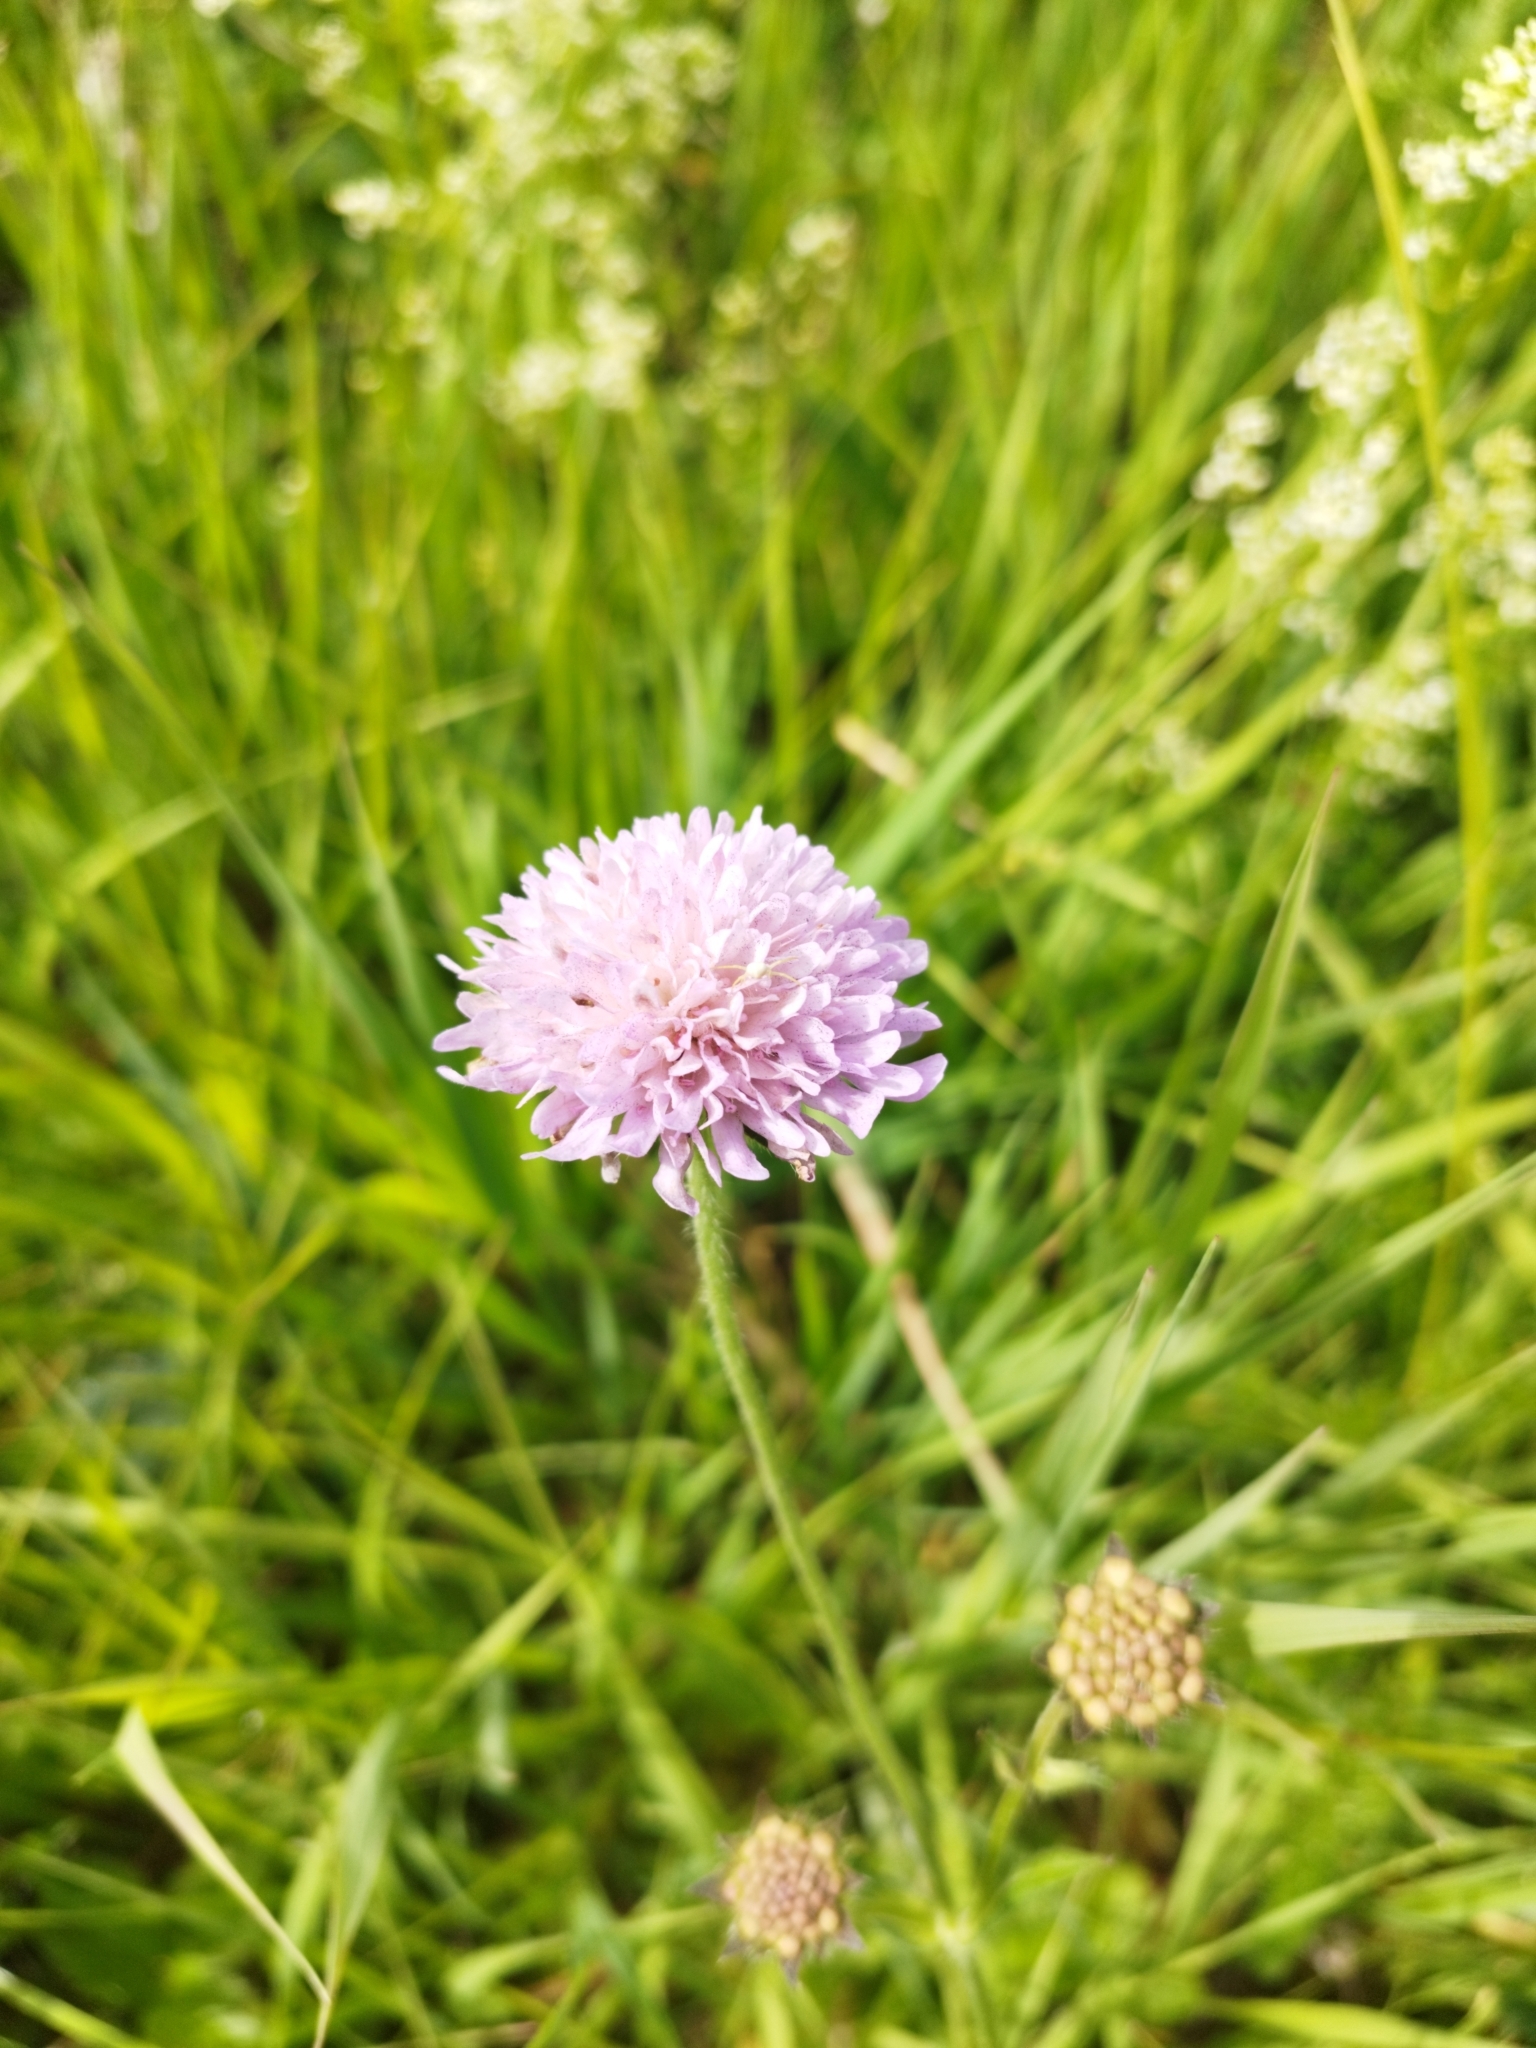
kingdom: Plantae
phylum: Tracheophyta
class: Magnoliopsida
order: Dipsacales
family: Caprifoliaceae
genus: Knautia
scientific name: Knautia arvensis
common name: Field scabiosa
